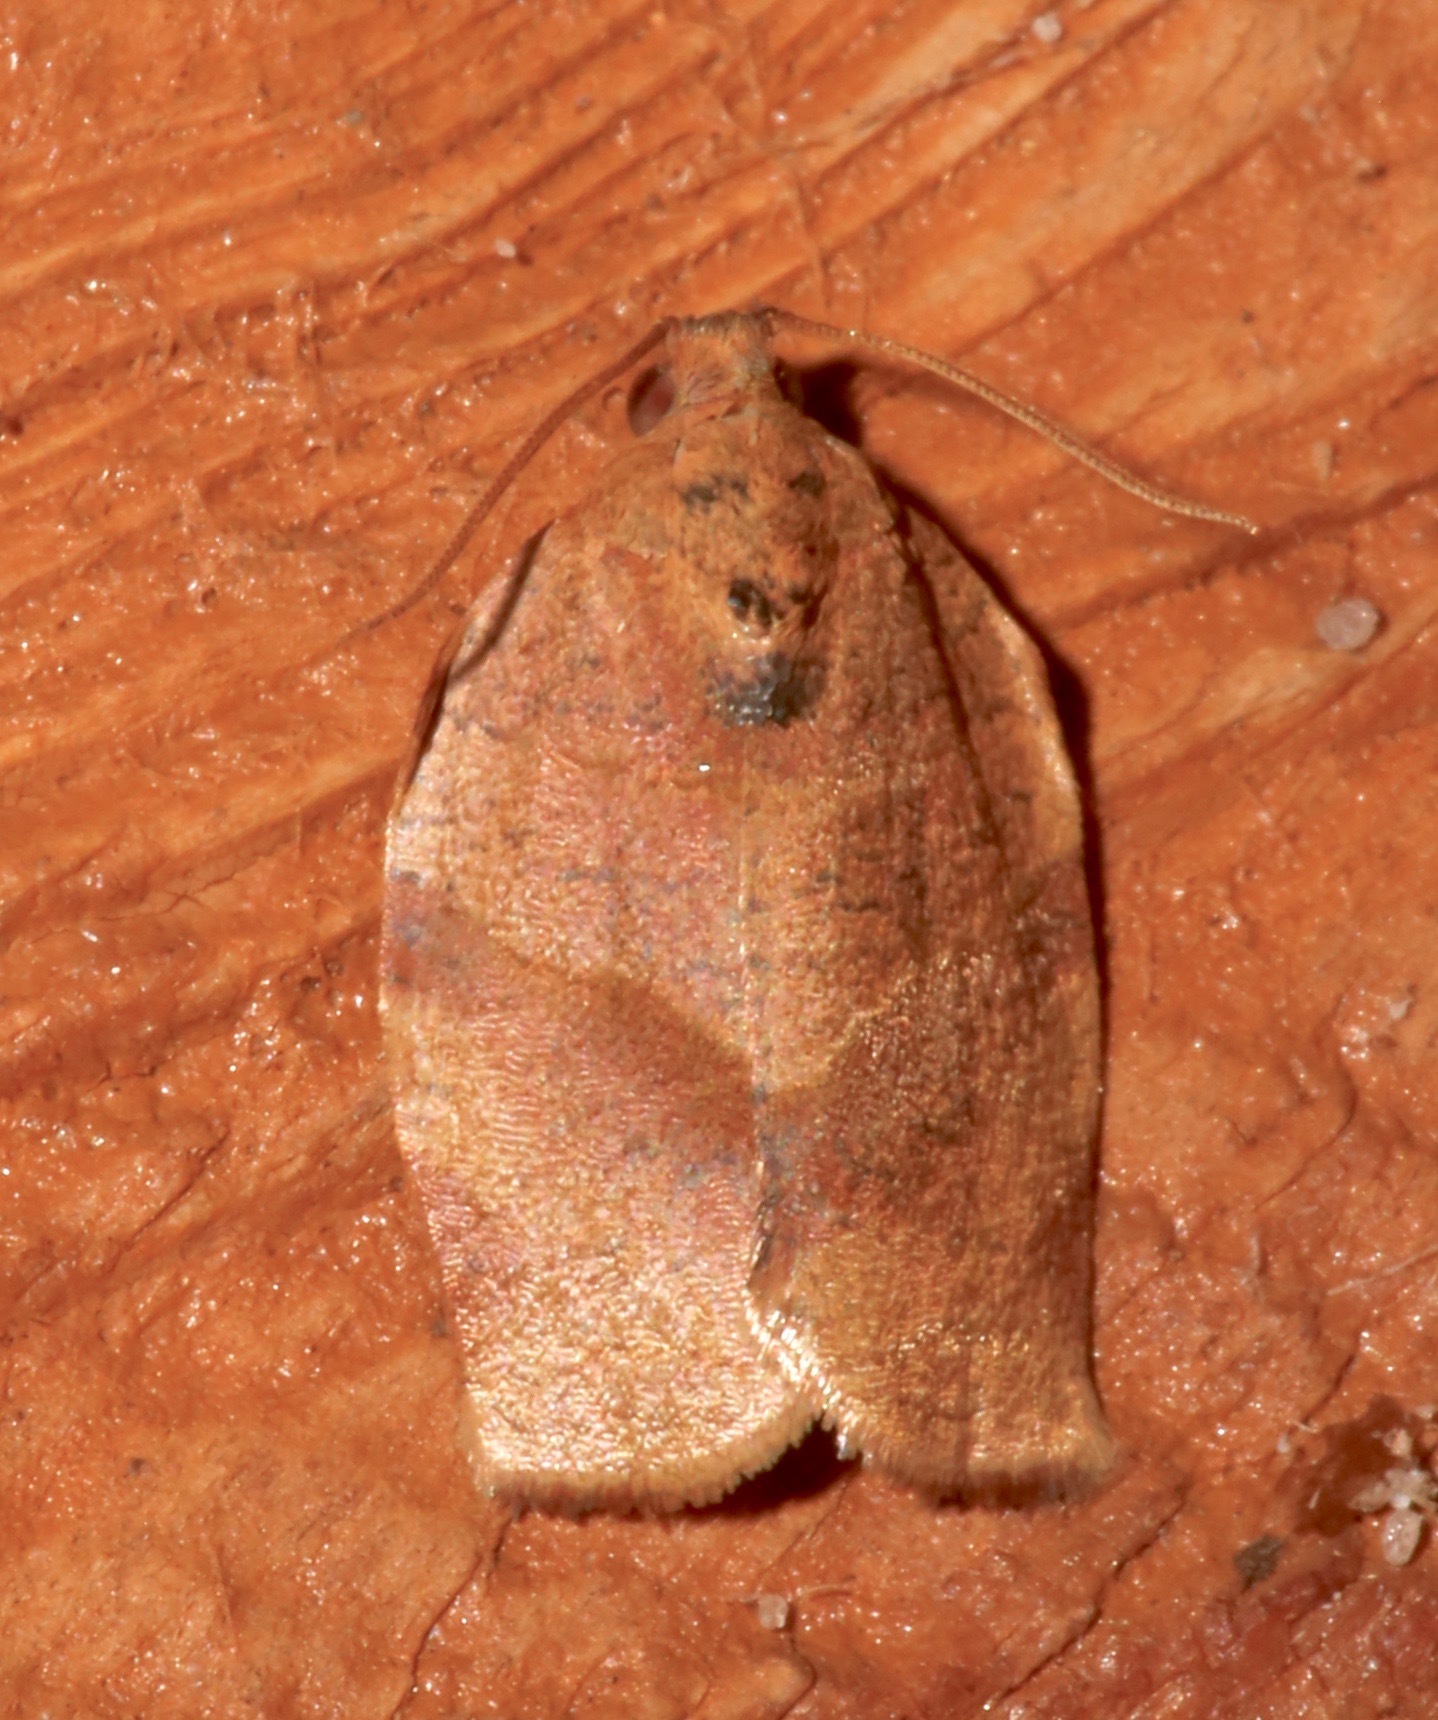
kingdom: Animalia
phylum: Arthropoda
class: Insecta
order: Lepidoptera
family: Tortricidae
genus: Choristoneura
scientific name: Choristoneura rosaceana
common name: Oblique-banded leafroller moth
